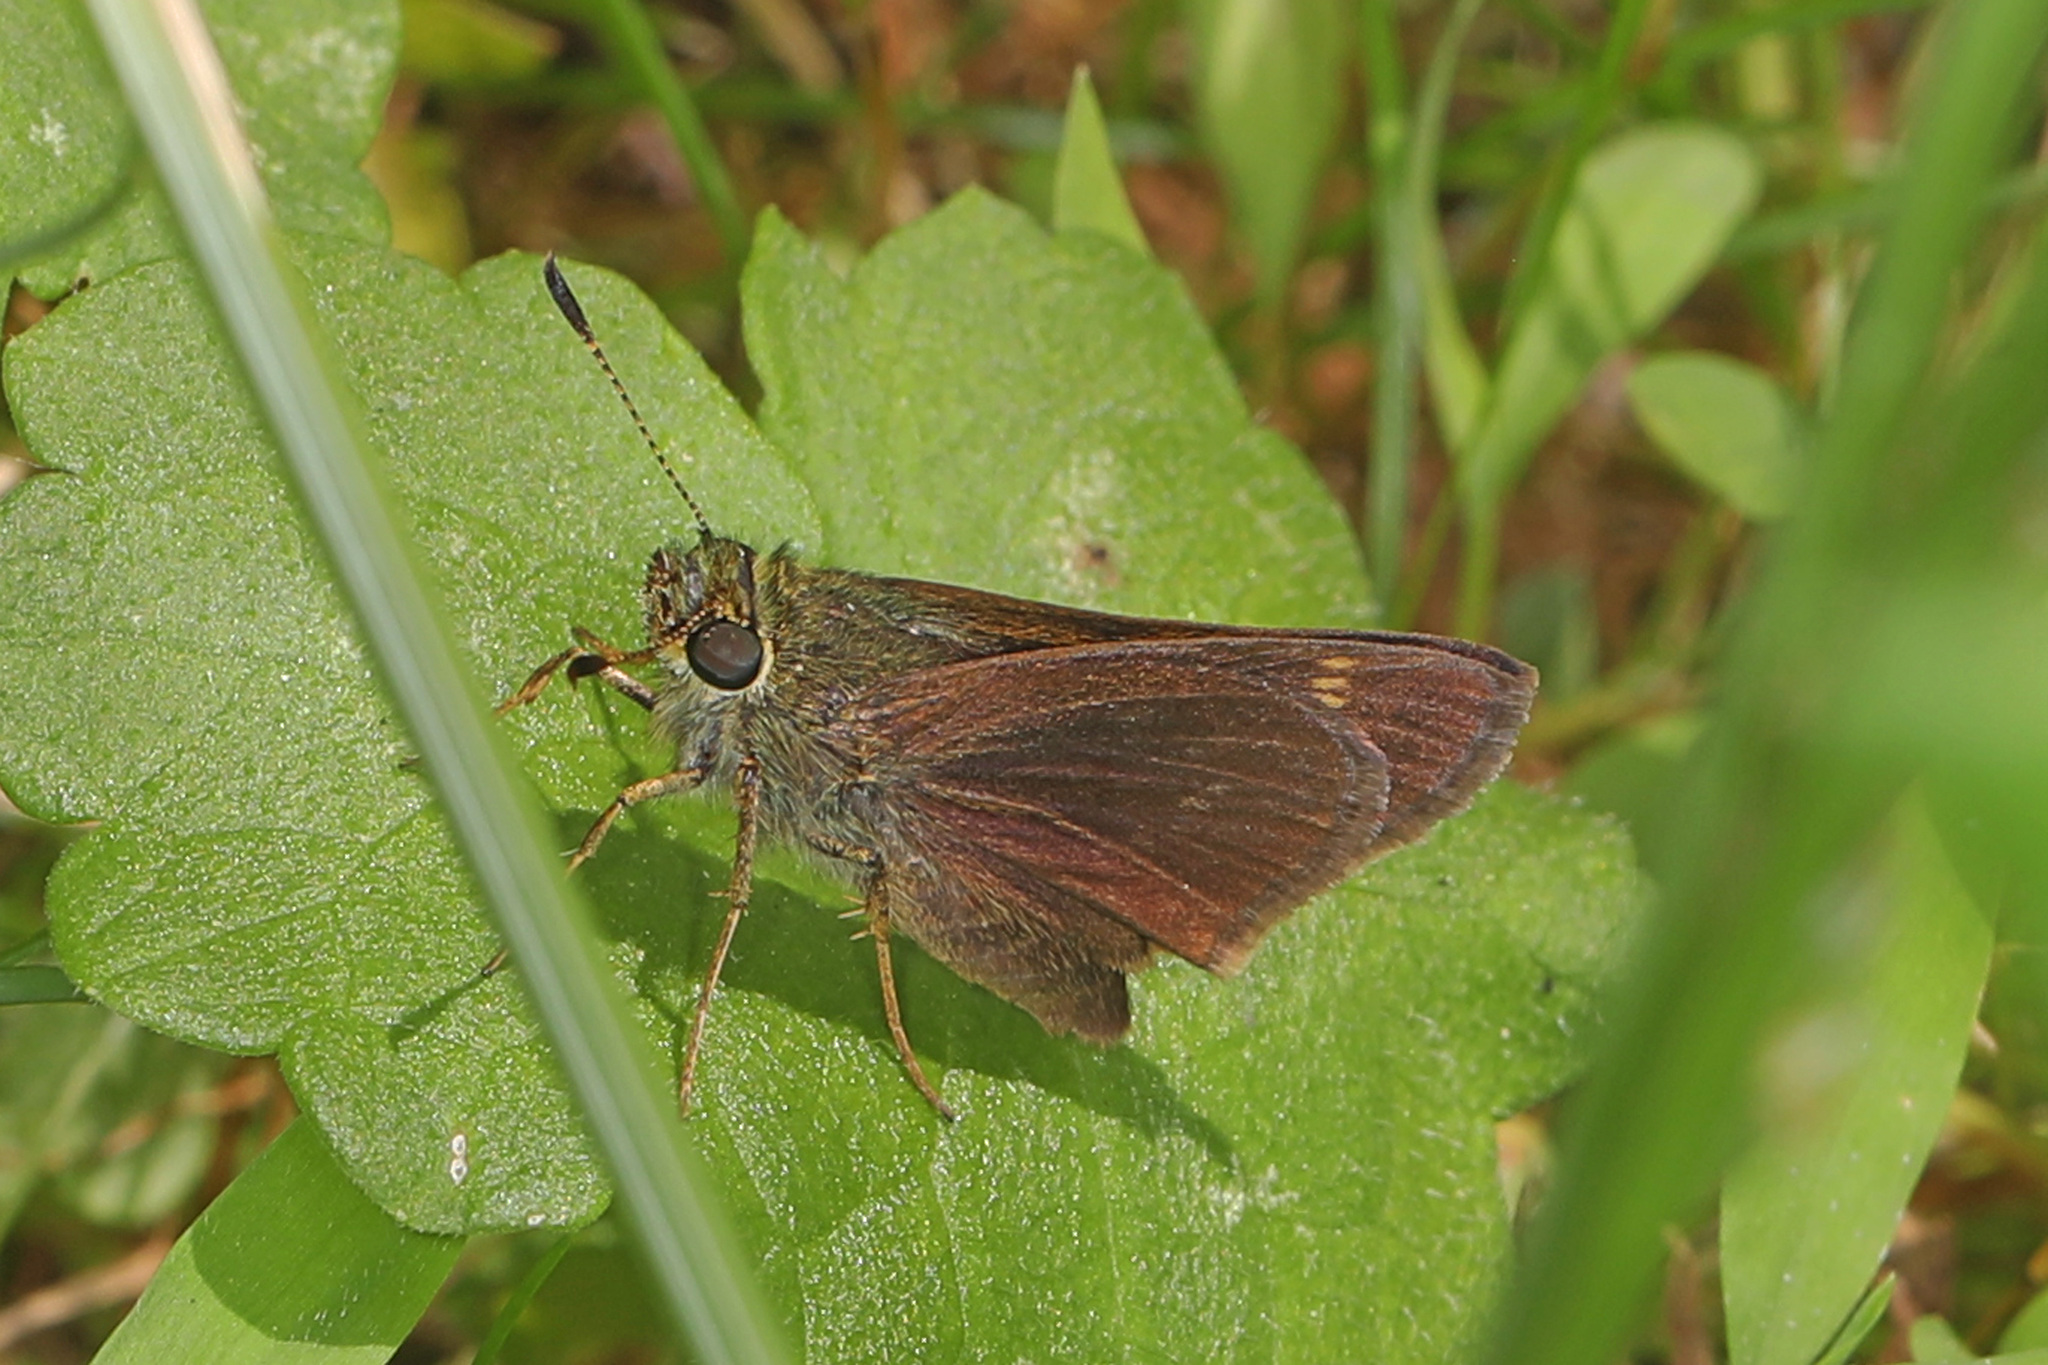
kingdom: Animalia
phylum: Arthropoda
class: Insecta
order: Lepidoptera
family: Hesperiidae
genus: Vernia
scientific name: Vernia verna
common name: Little glassywing
